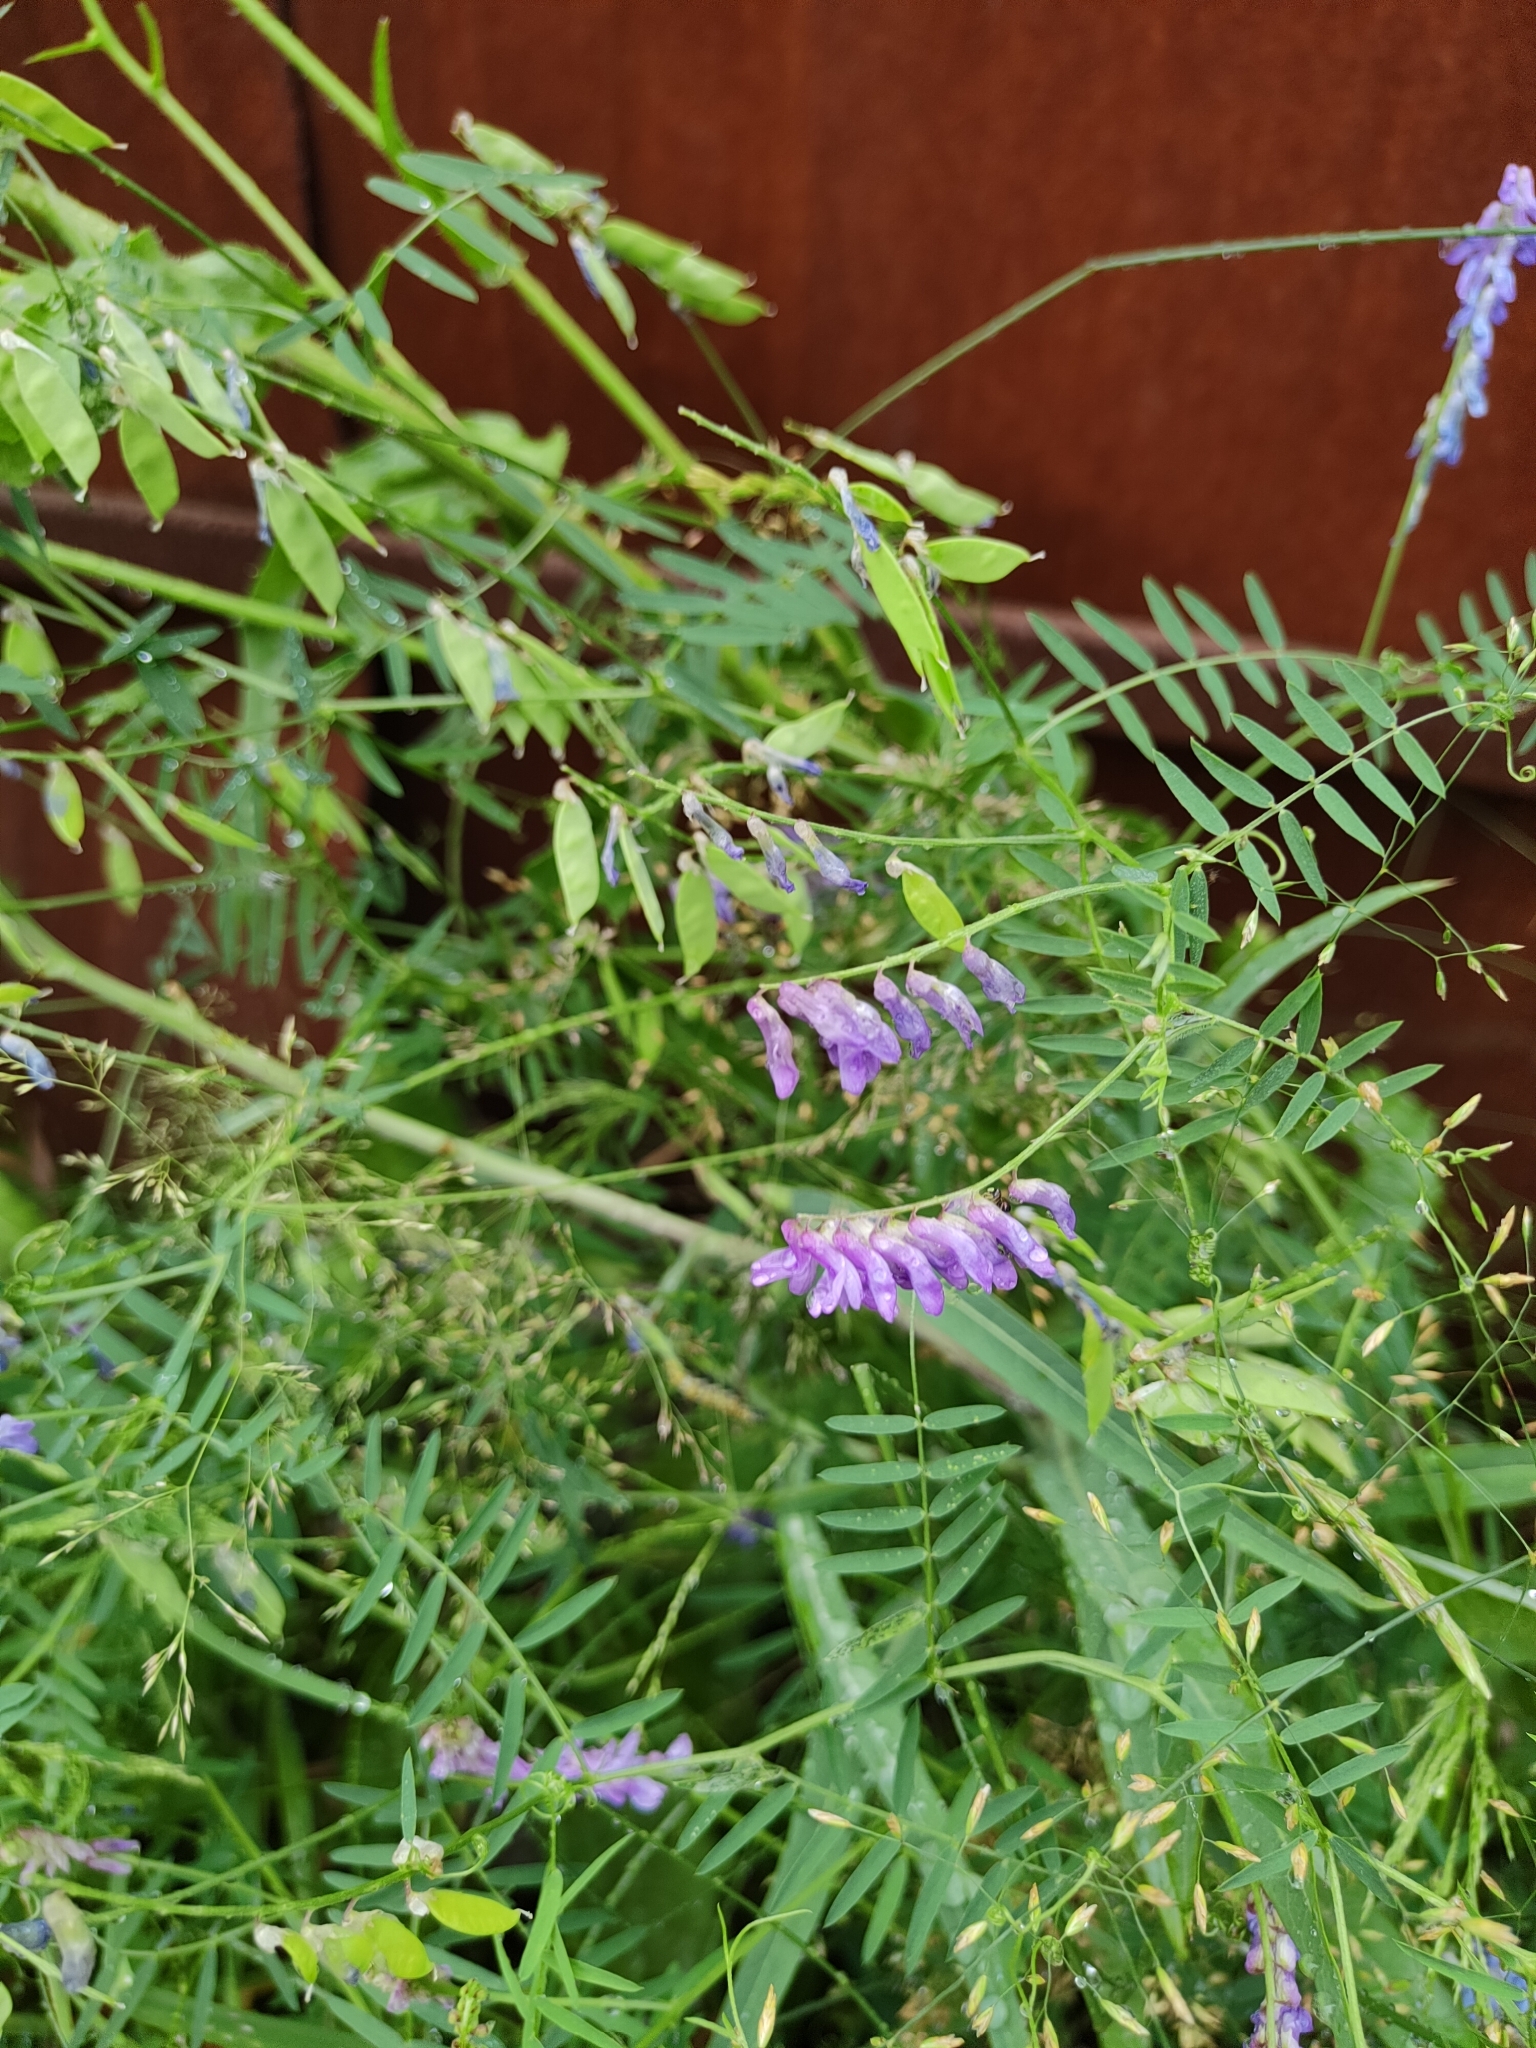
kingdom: Plantae
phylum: Tracheophyta
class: Magnoliopsida
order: Fabales
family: Fabaceae
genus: Vicia
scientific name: Vicia cracca
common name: Bird vetch
